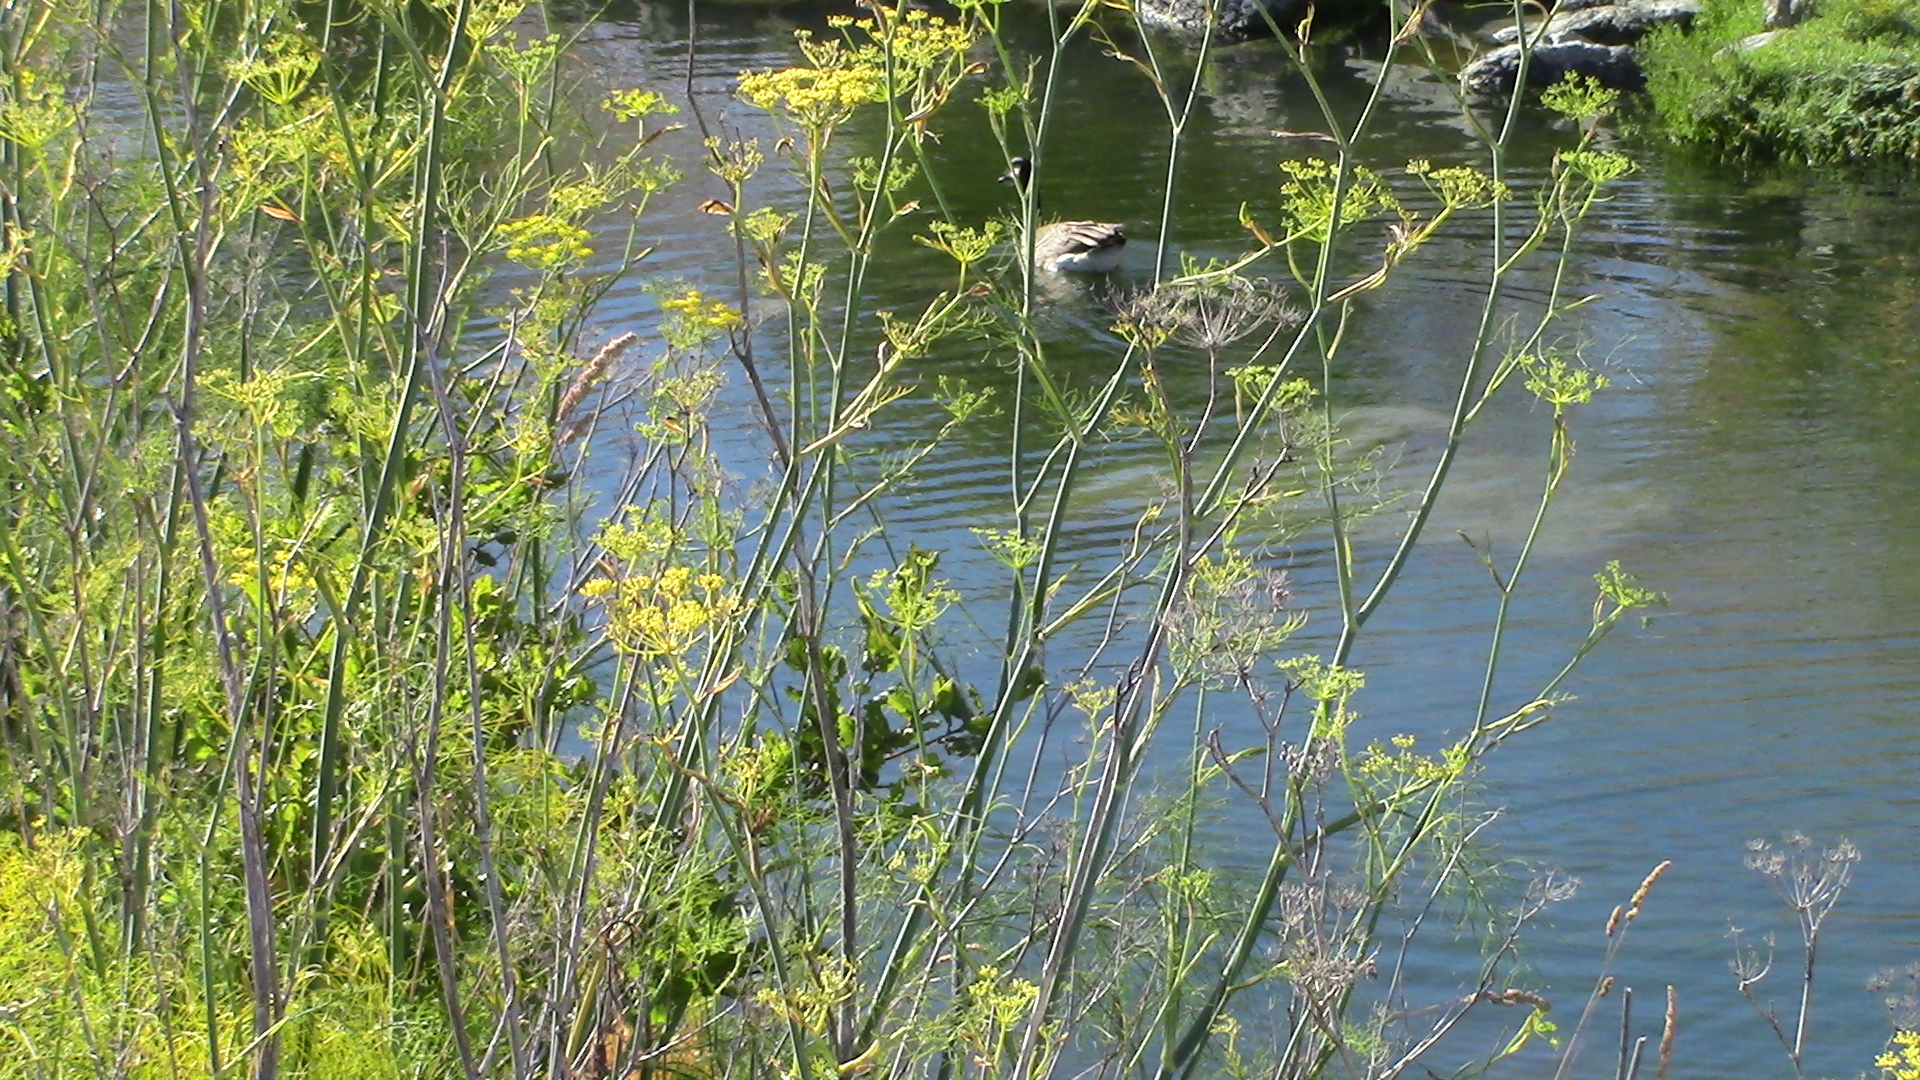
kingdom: Animalia
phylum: Chordata
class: Aves
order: Anseriformes
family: Anatidae
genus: Branta
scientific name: Branta canadensis
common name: Canada goose
